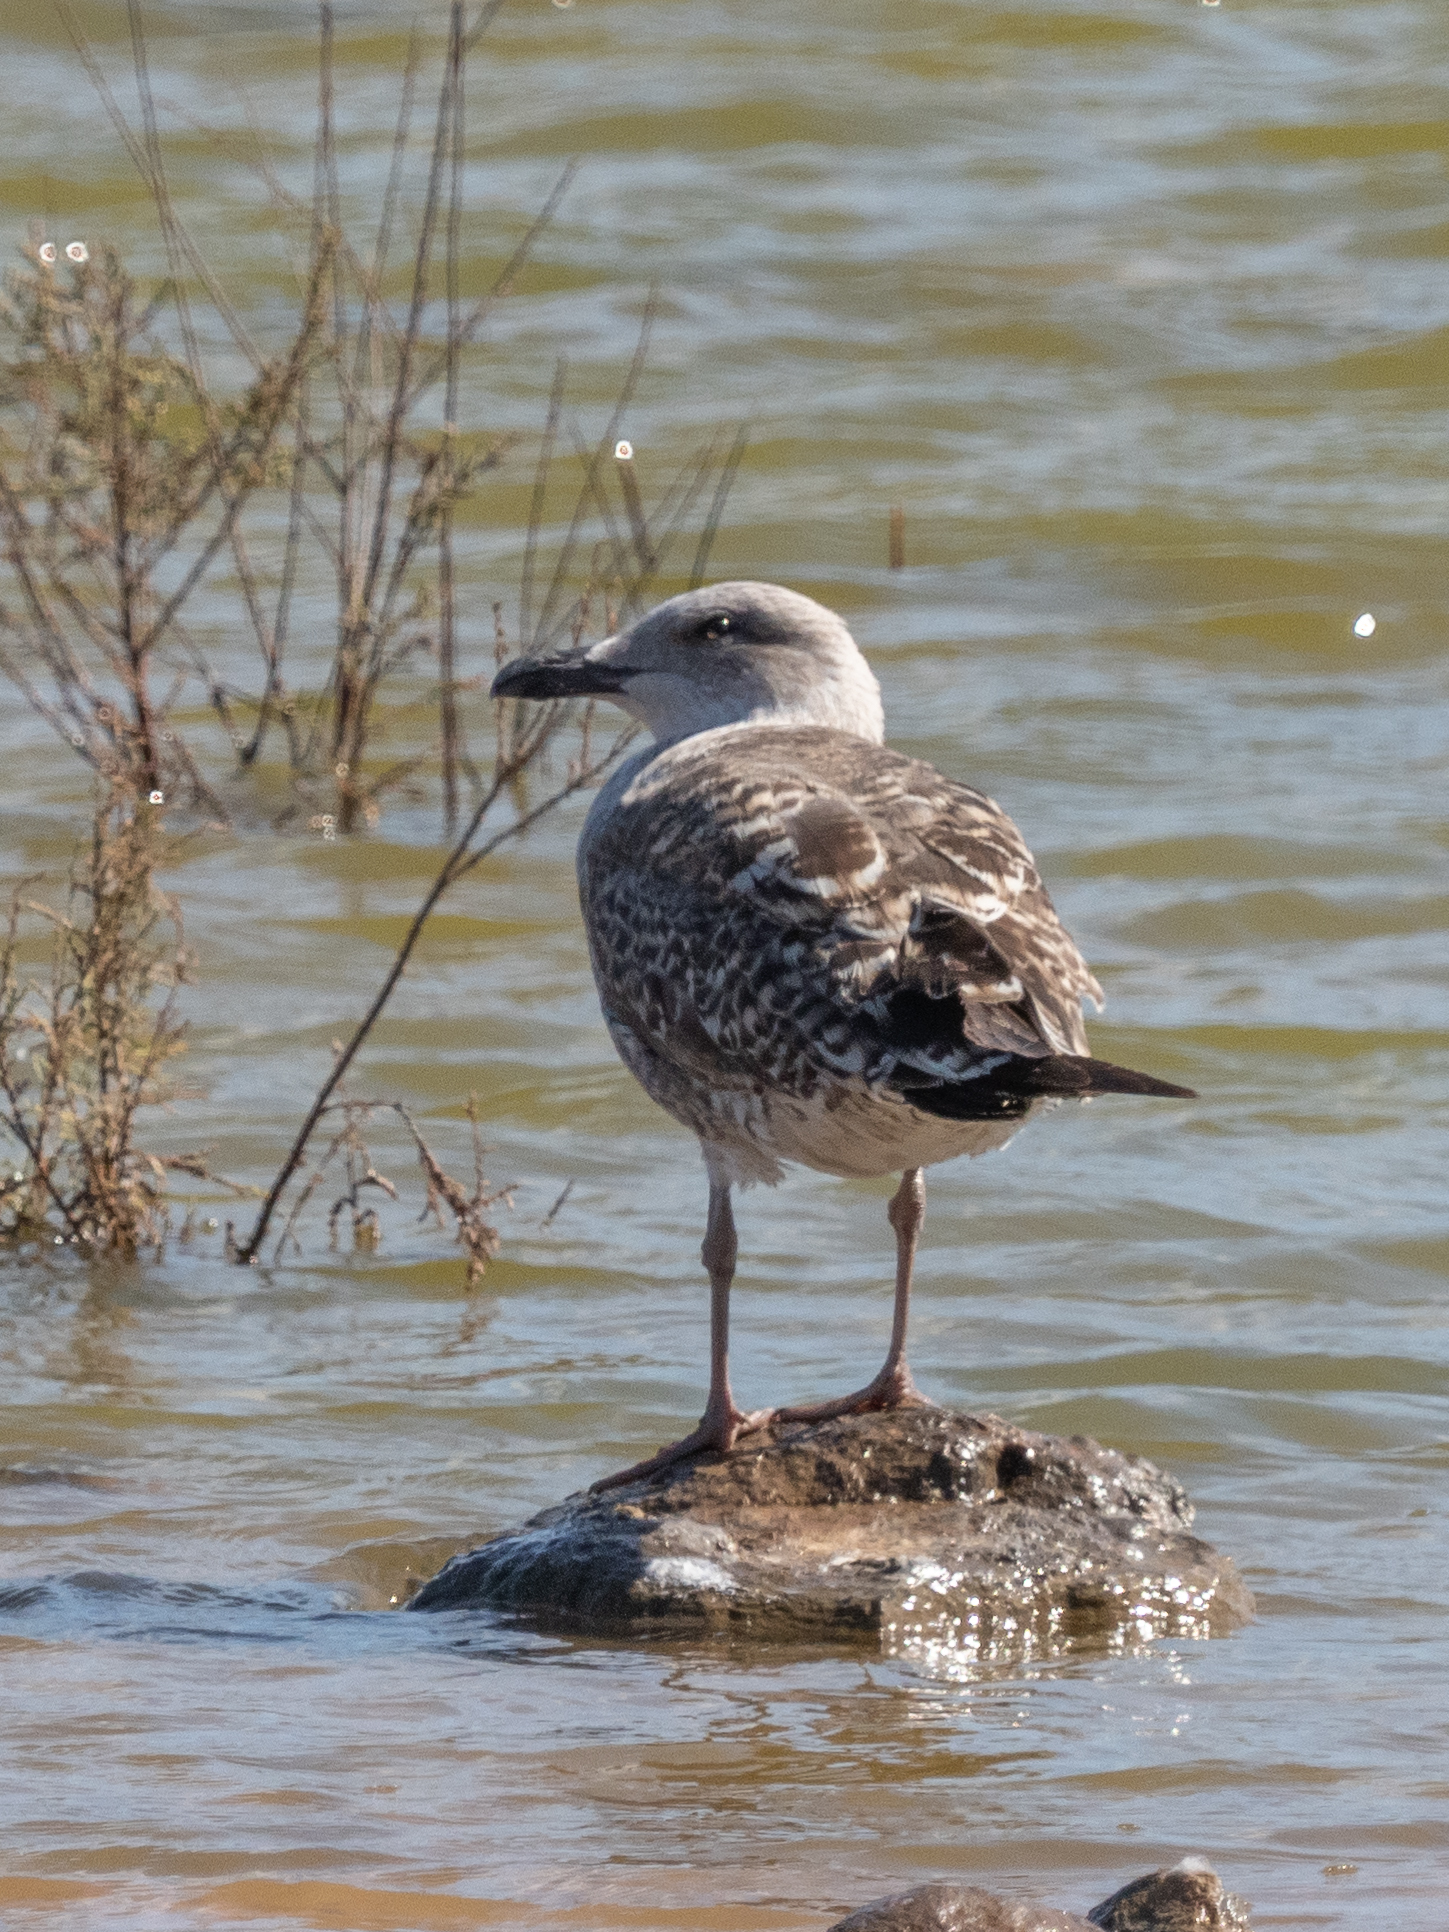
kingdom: Animalia
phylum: Chordata
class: Aves
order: Charadriiformes
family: Laridae
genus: Ichthyaetus
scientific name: Ichthyaetus audouinii
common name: Audouin's gull
